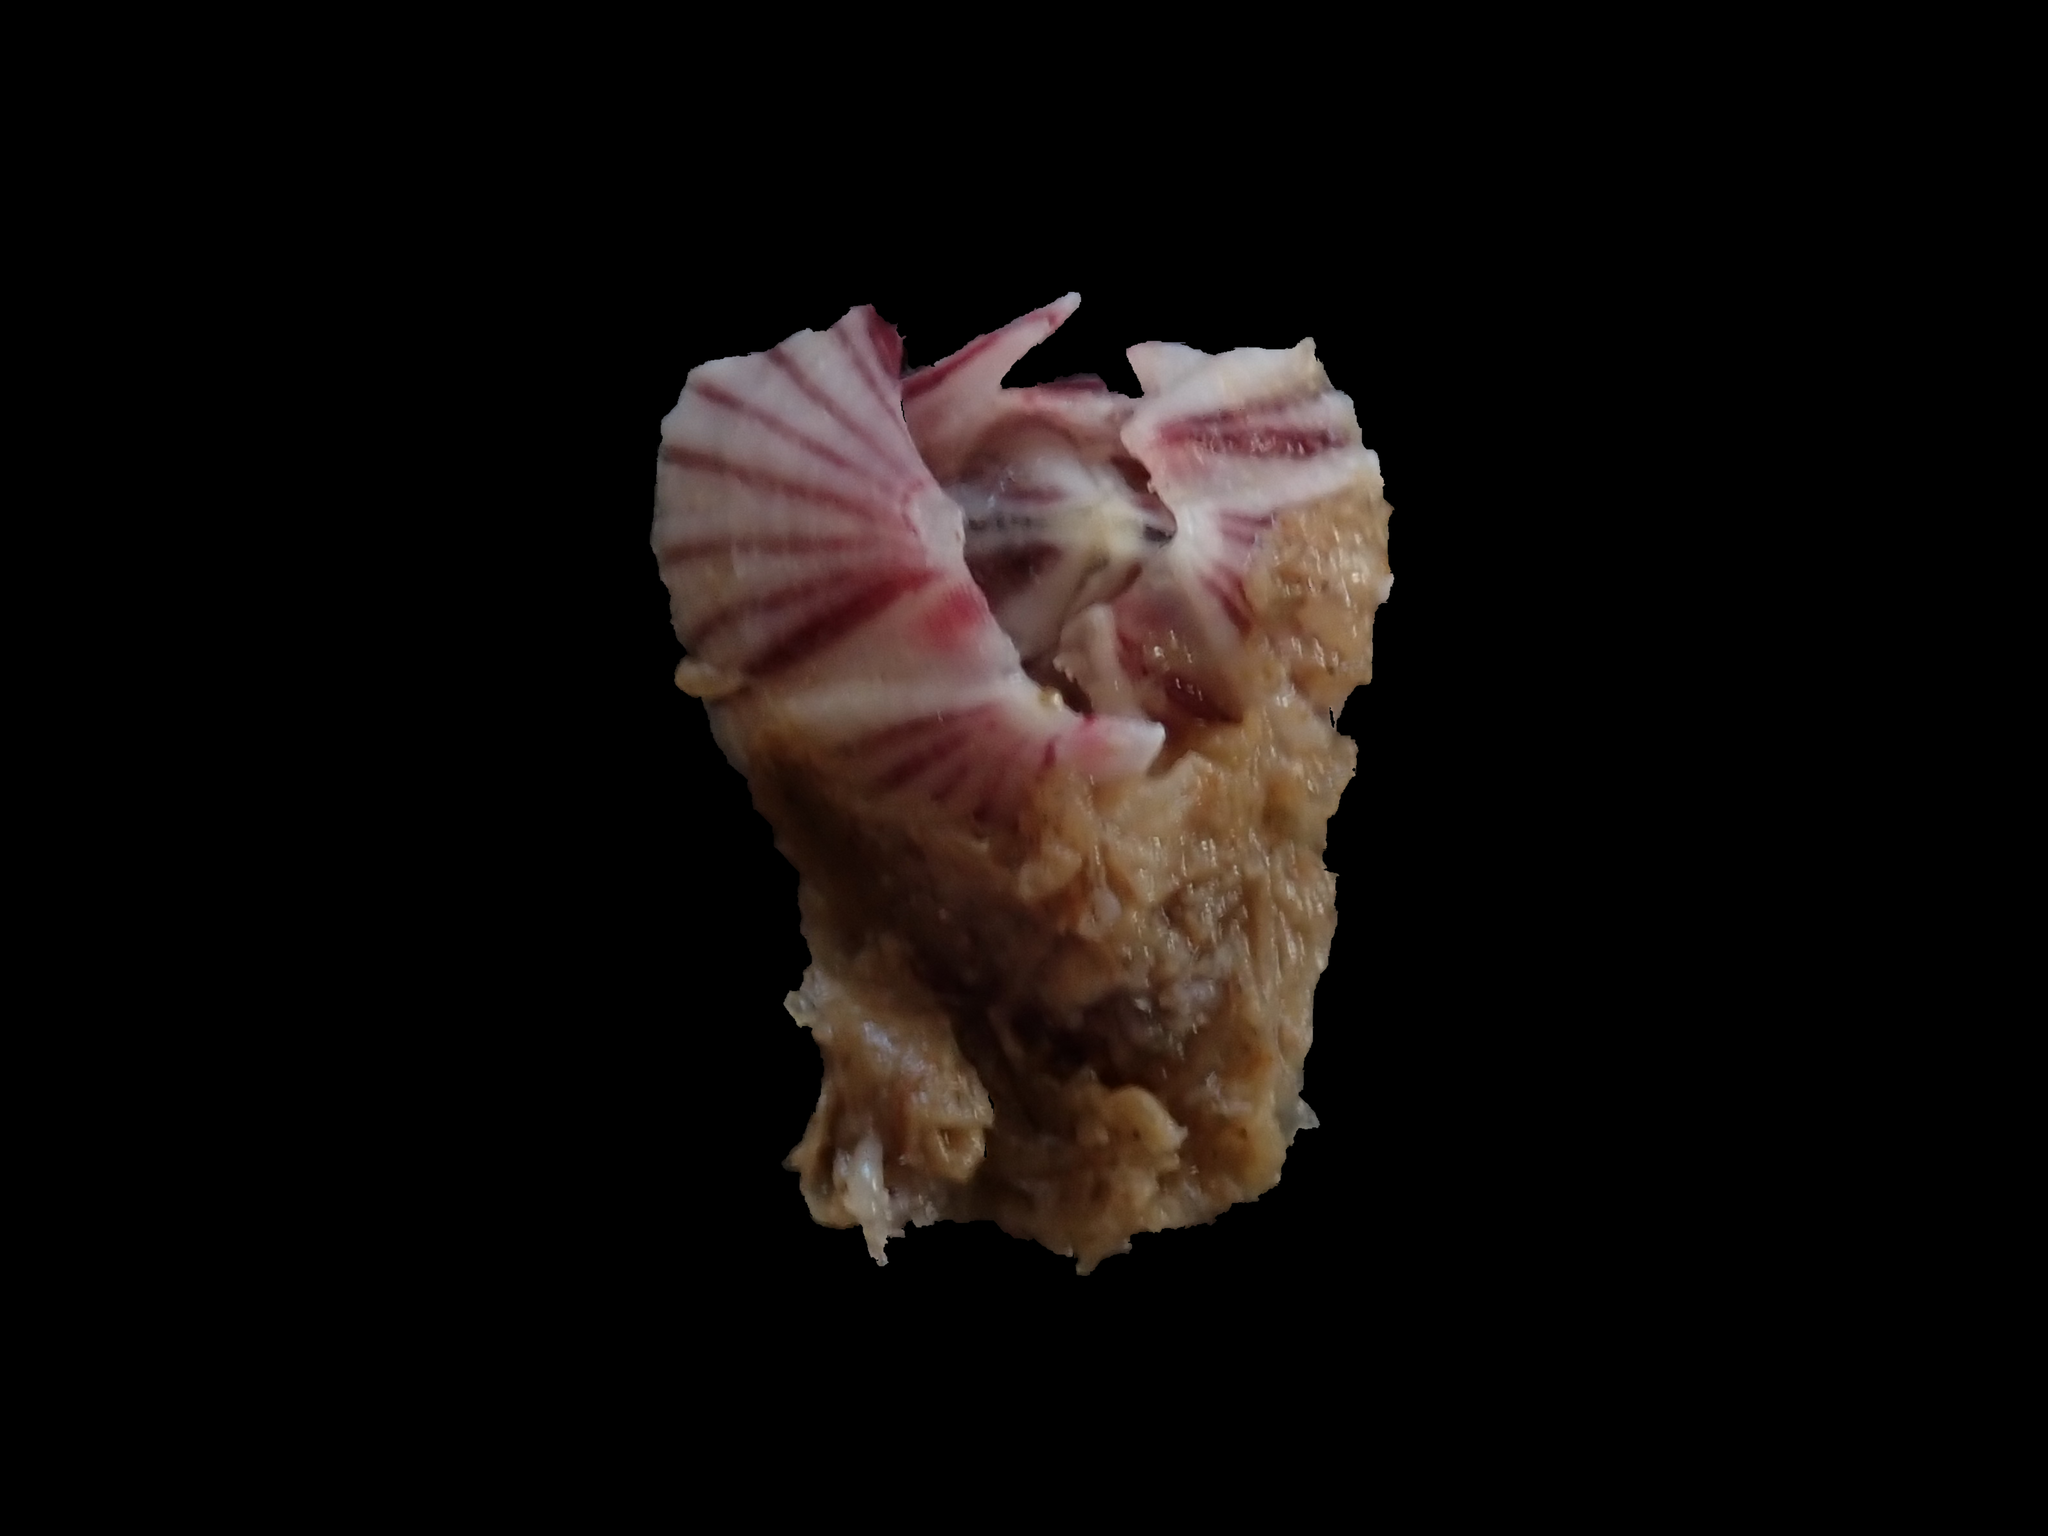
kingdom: Animalia
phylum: Arthropoda
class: Maxillopoda
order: Sessilia
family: Balanidae
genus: Balanus
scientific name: Balanus trigonus
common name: Triangle barnacle
